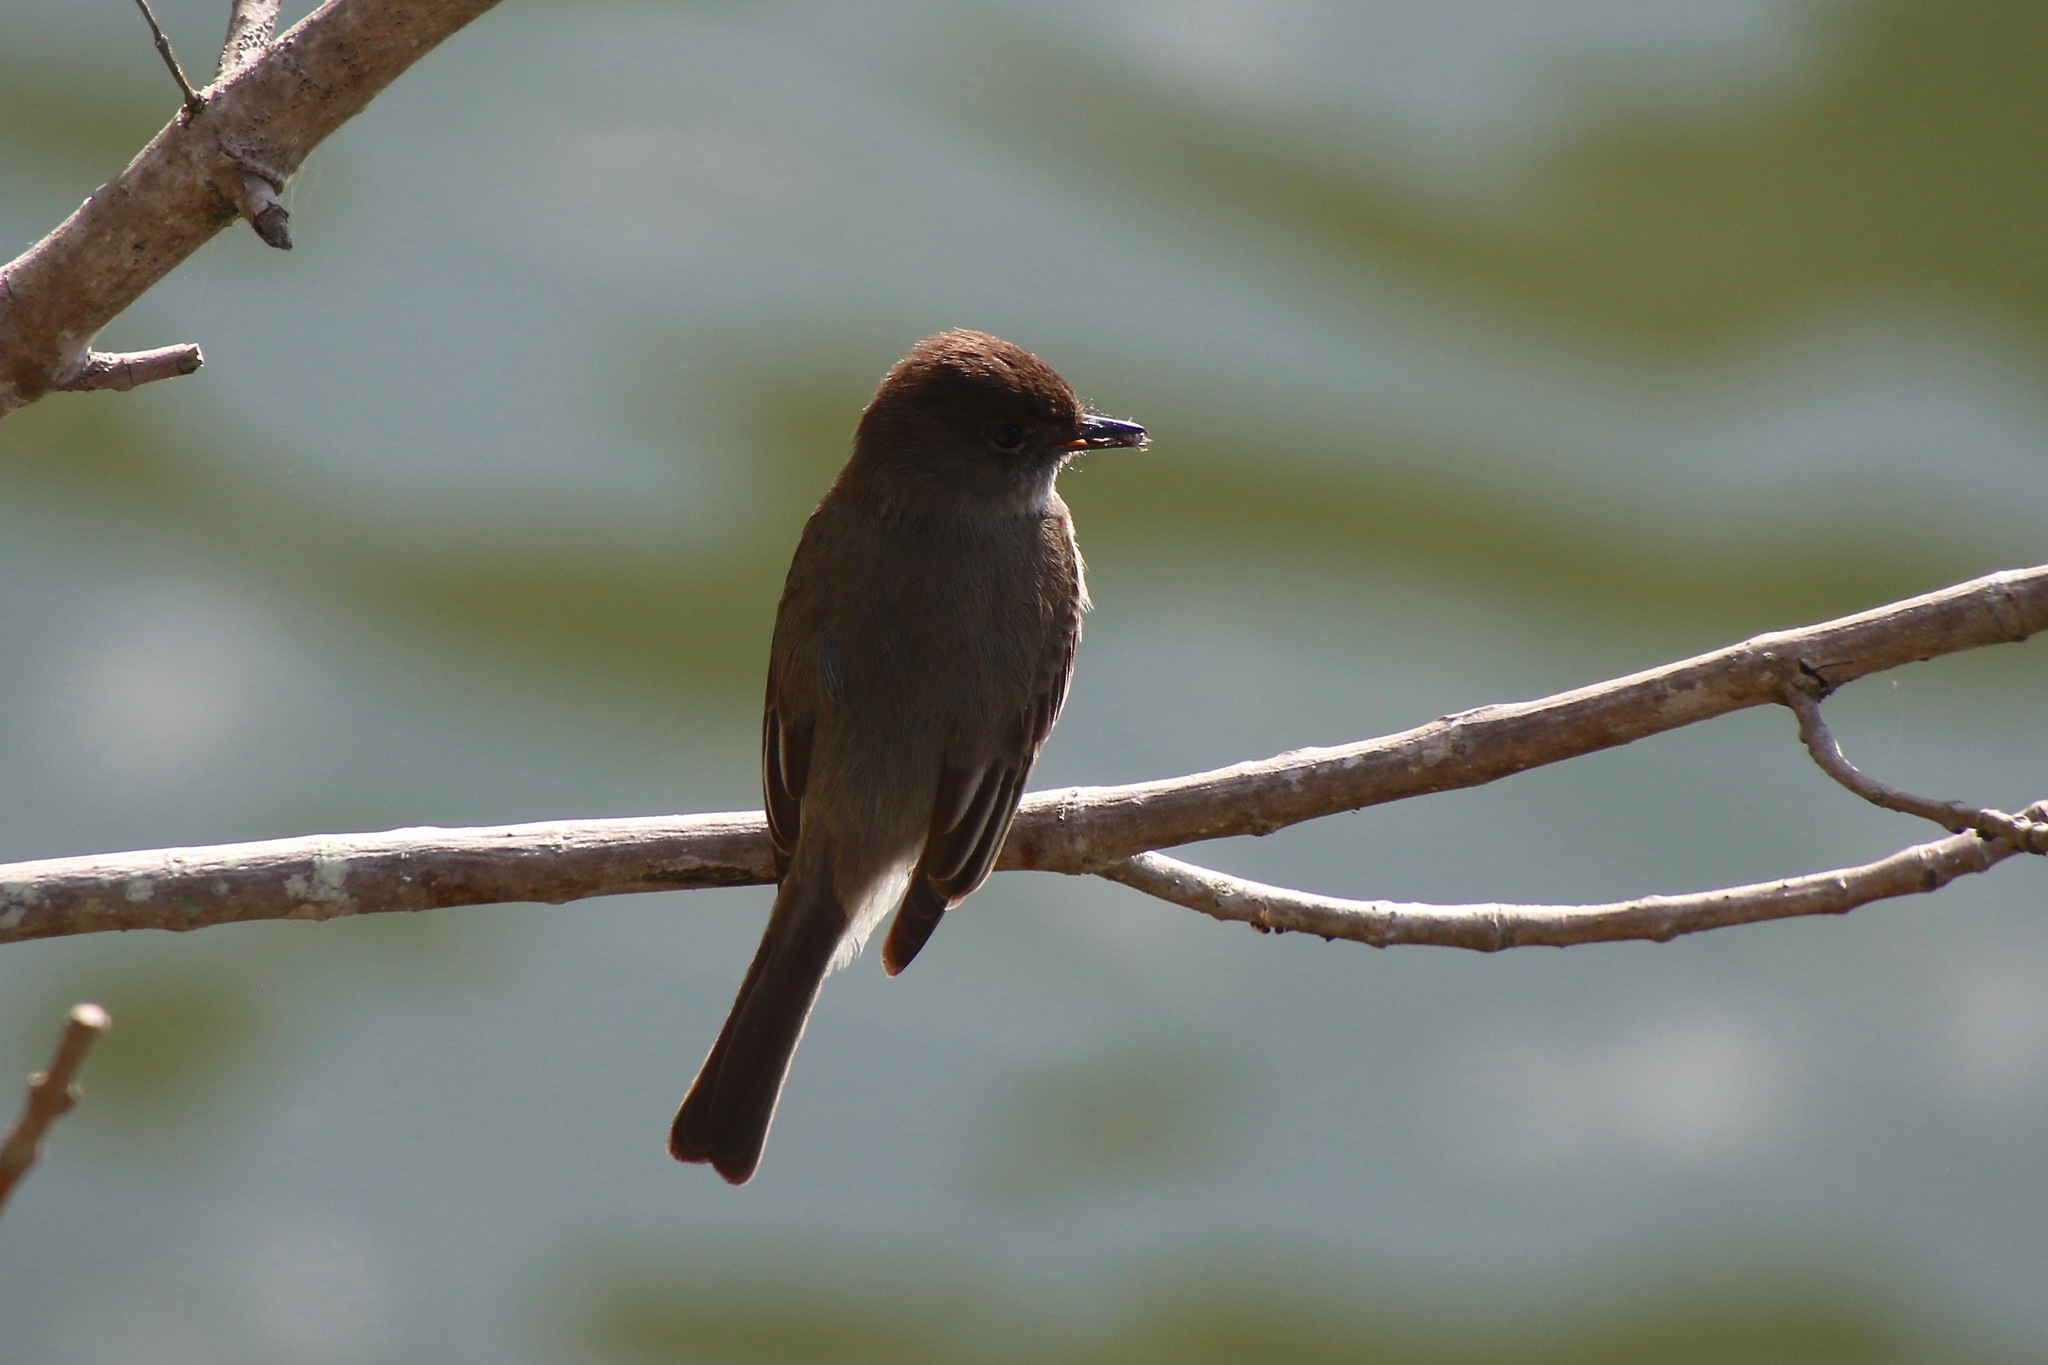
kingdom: Animalia
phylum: Chordata
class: Aves
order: Passeriformes
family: Tyrannidae
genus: Sayornis
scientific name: Sayornis phoebe
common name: Eastern phoebe
